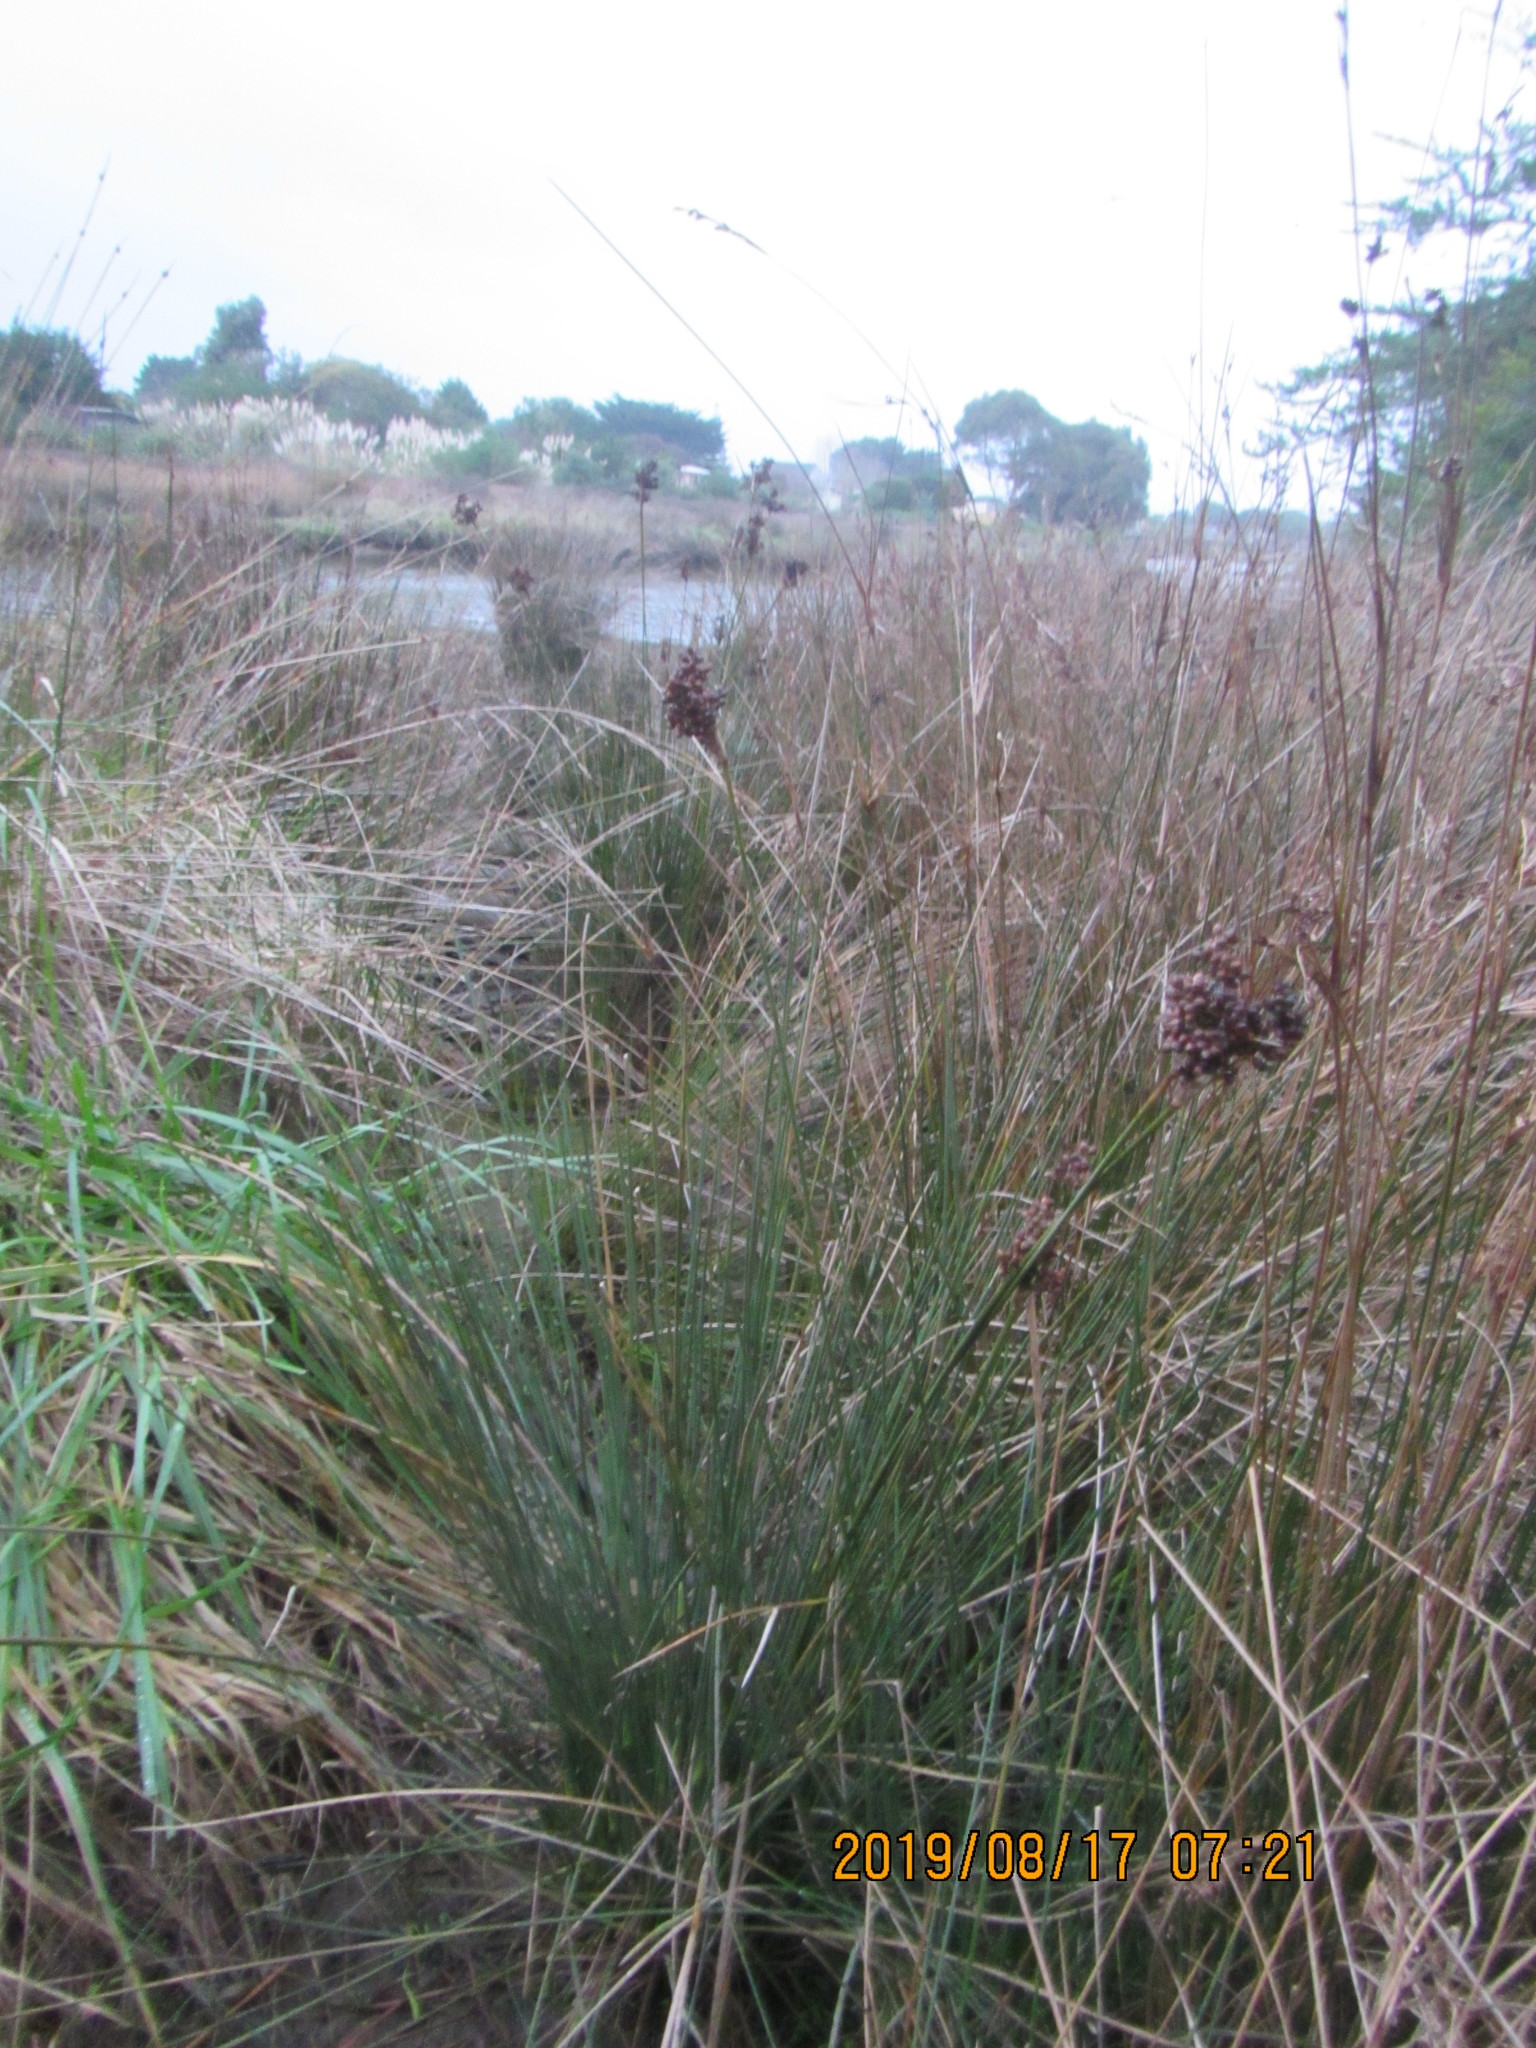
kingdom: Plantae
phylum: Tracheophyta
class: Liliopsida
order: Poales
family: Juncaceae
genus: Juncus
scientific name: Juncus acutus
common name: Sharp rush
